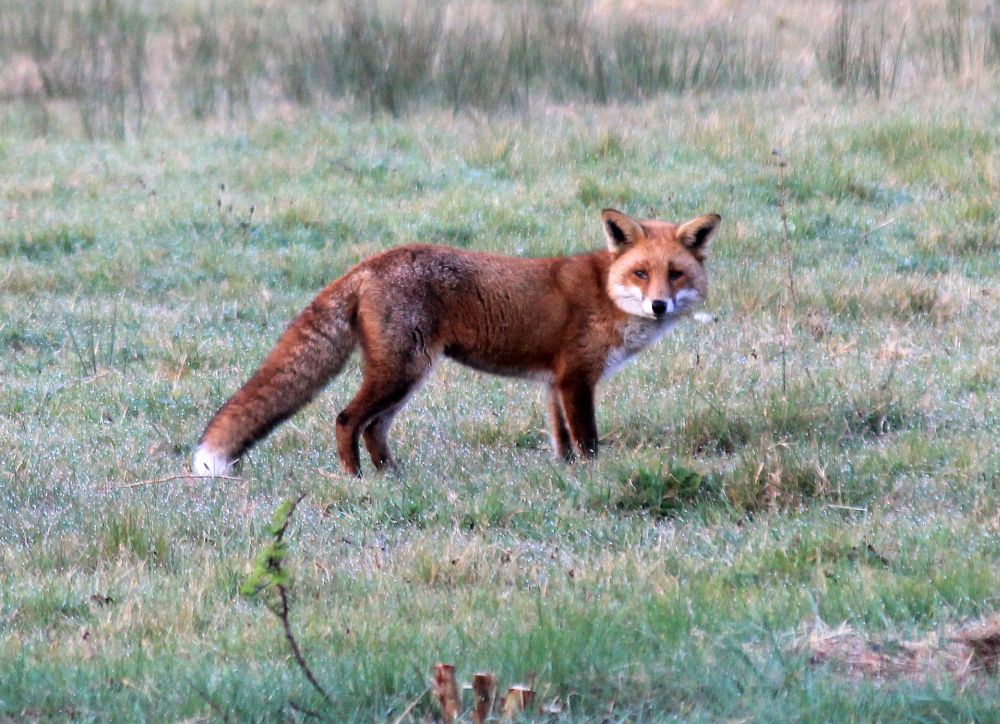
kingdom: Animalia
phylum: Chordata
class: Mammalia
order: Carnivora
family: Canidae
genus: Vulpes
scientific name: Vulpes vulpes
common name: Red fox
